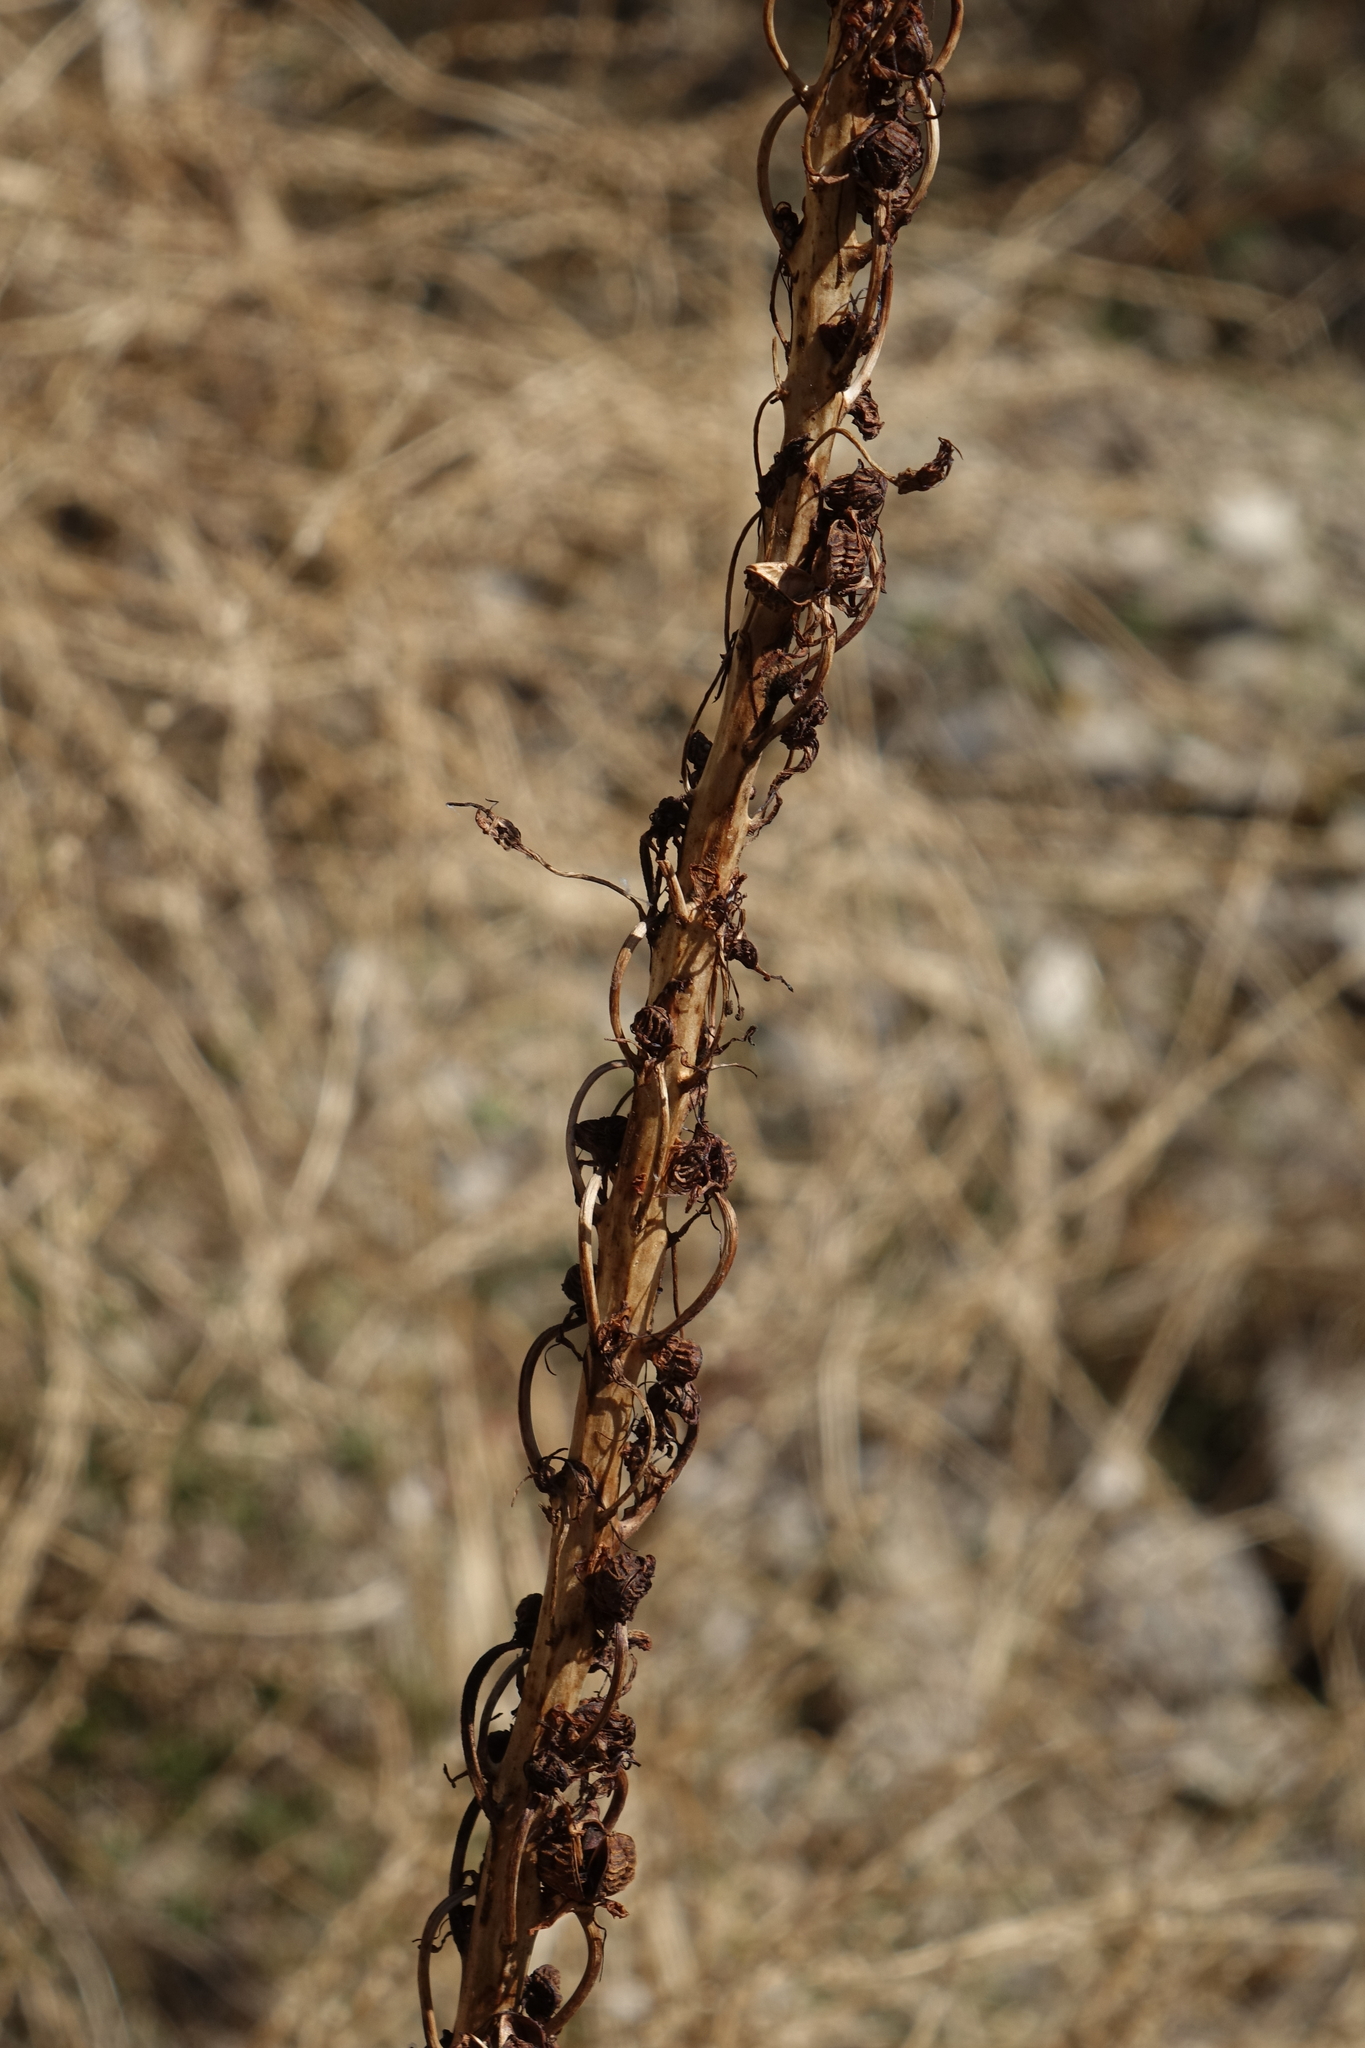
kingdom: Plantae
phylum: Tracheophyta
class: Liliopsida
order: Asparagales
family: Asphodelaceae
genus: Eremurus
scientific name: Eremurus spectabilis
